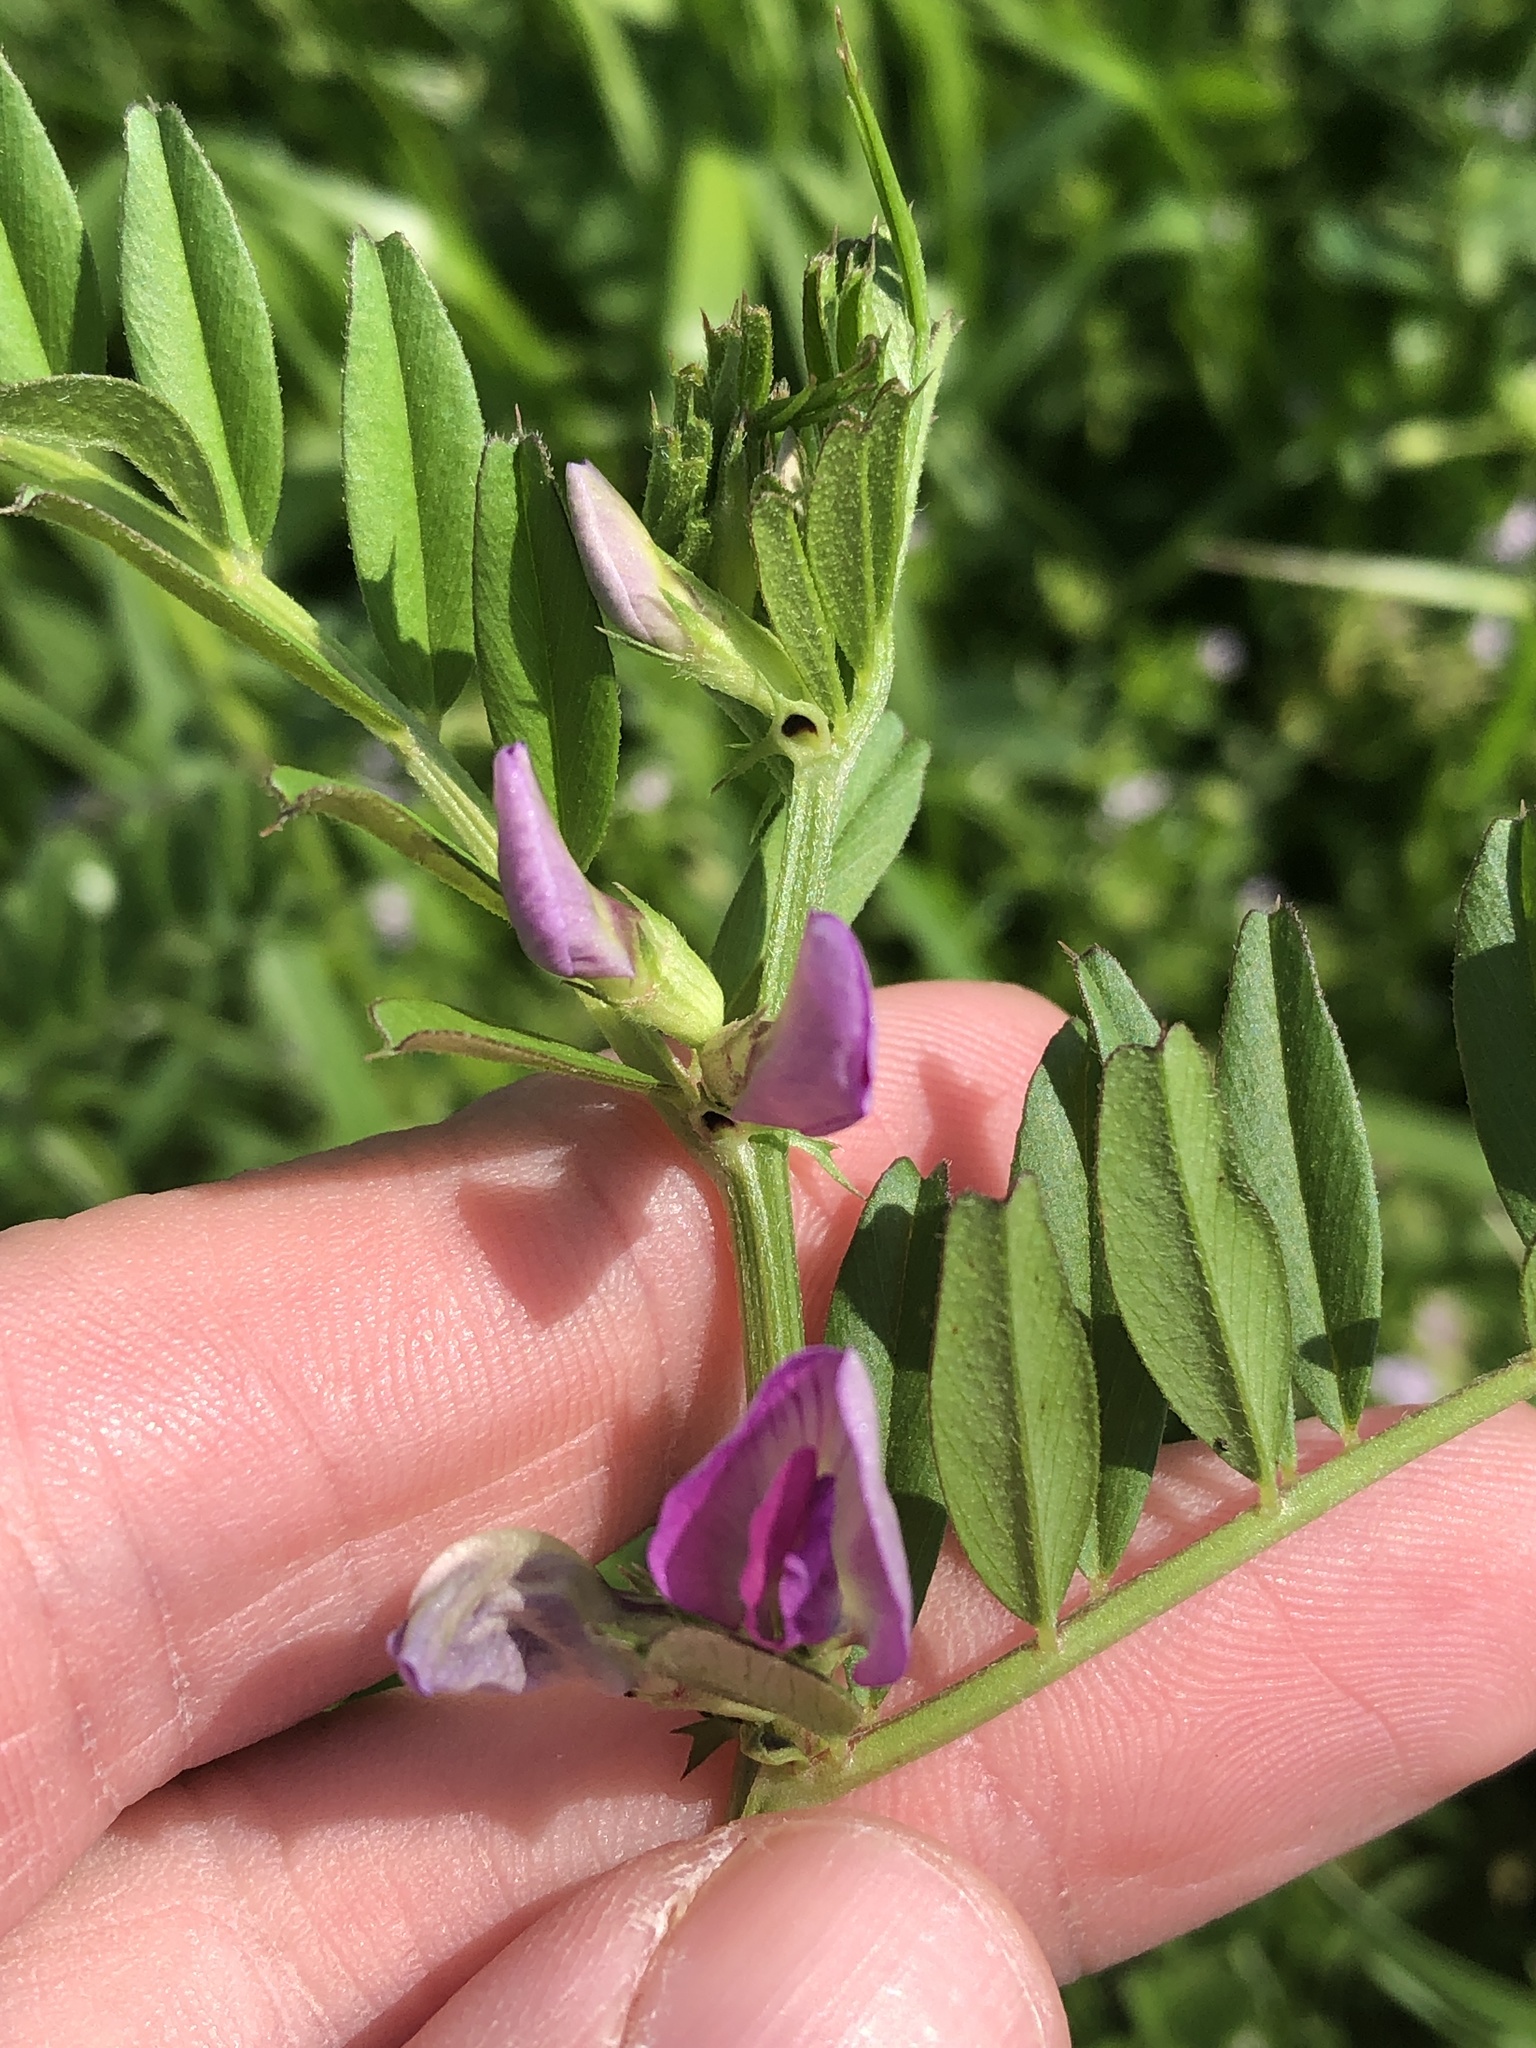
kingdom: Plantae
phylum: Tracheophyta
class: Magnoliopsida
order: Fabales
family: Fabaceae
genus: Vicia
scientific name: Vicia sativa
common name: Garden vetch
